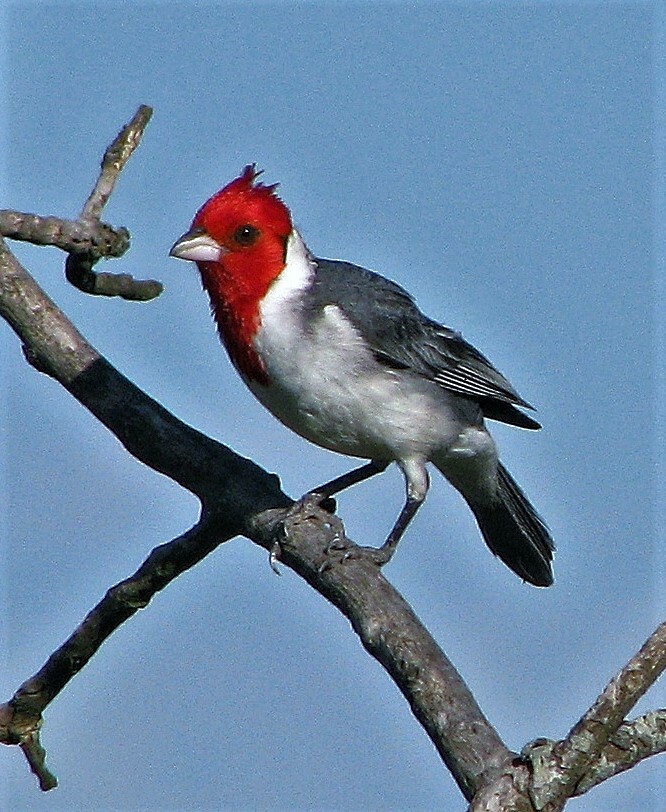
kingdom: Animalia
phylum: Chordata
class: Aves
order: Passeriformes
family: Thraupidae
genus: Paroaria
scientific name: Paroaria coronata
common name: Red-crested cardinal
